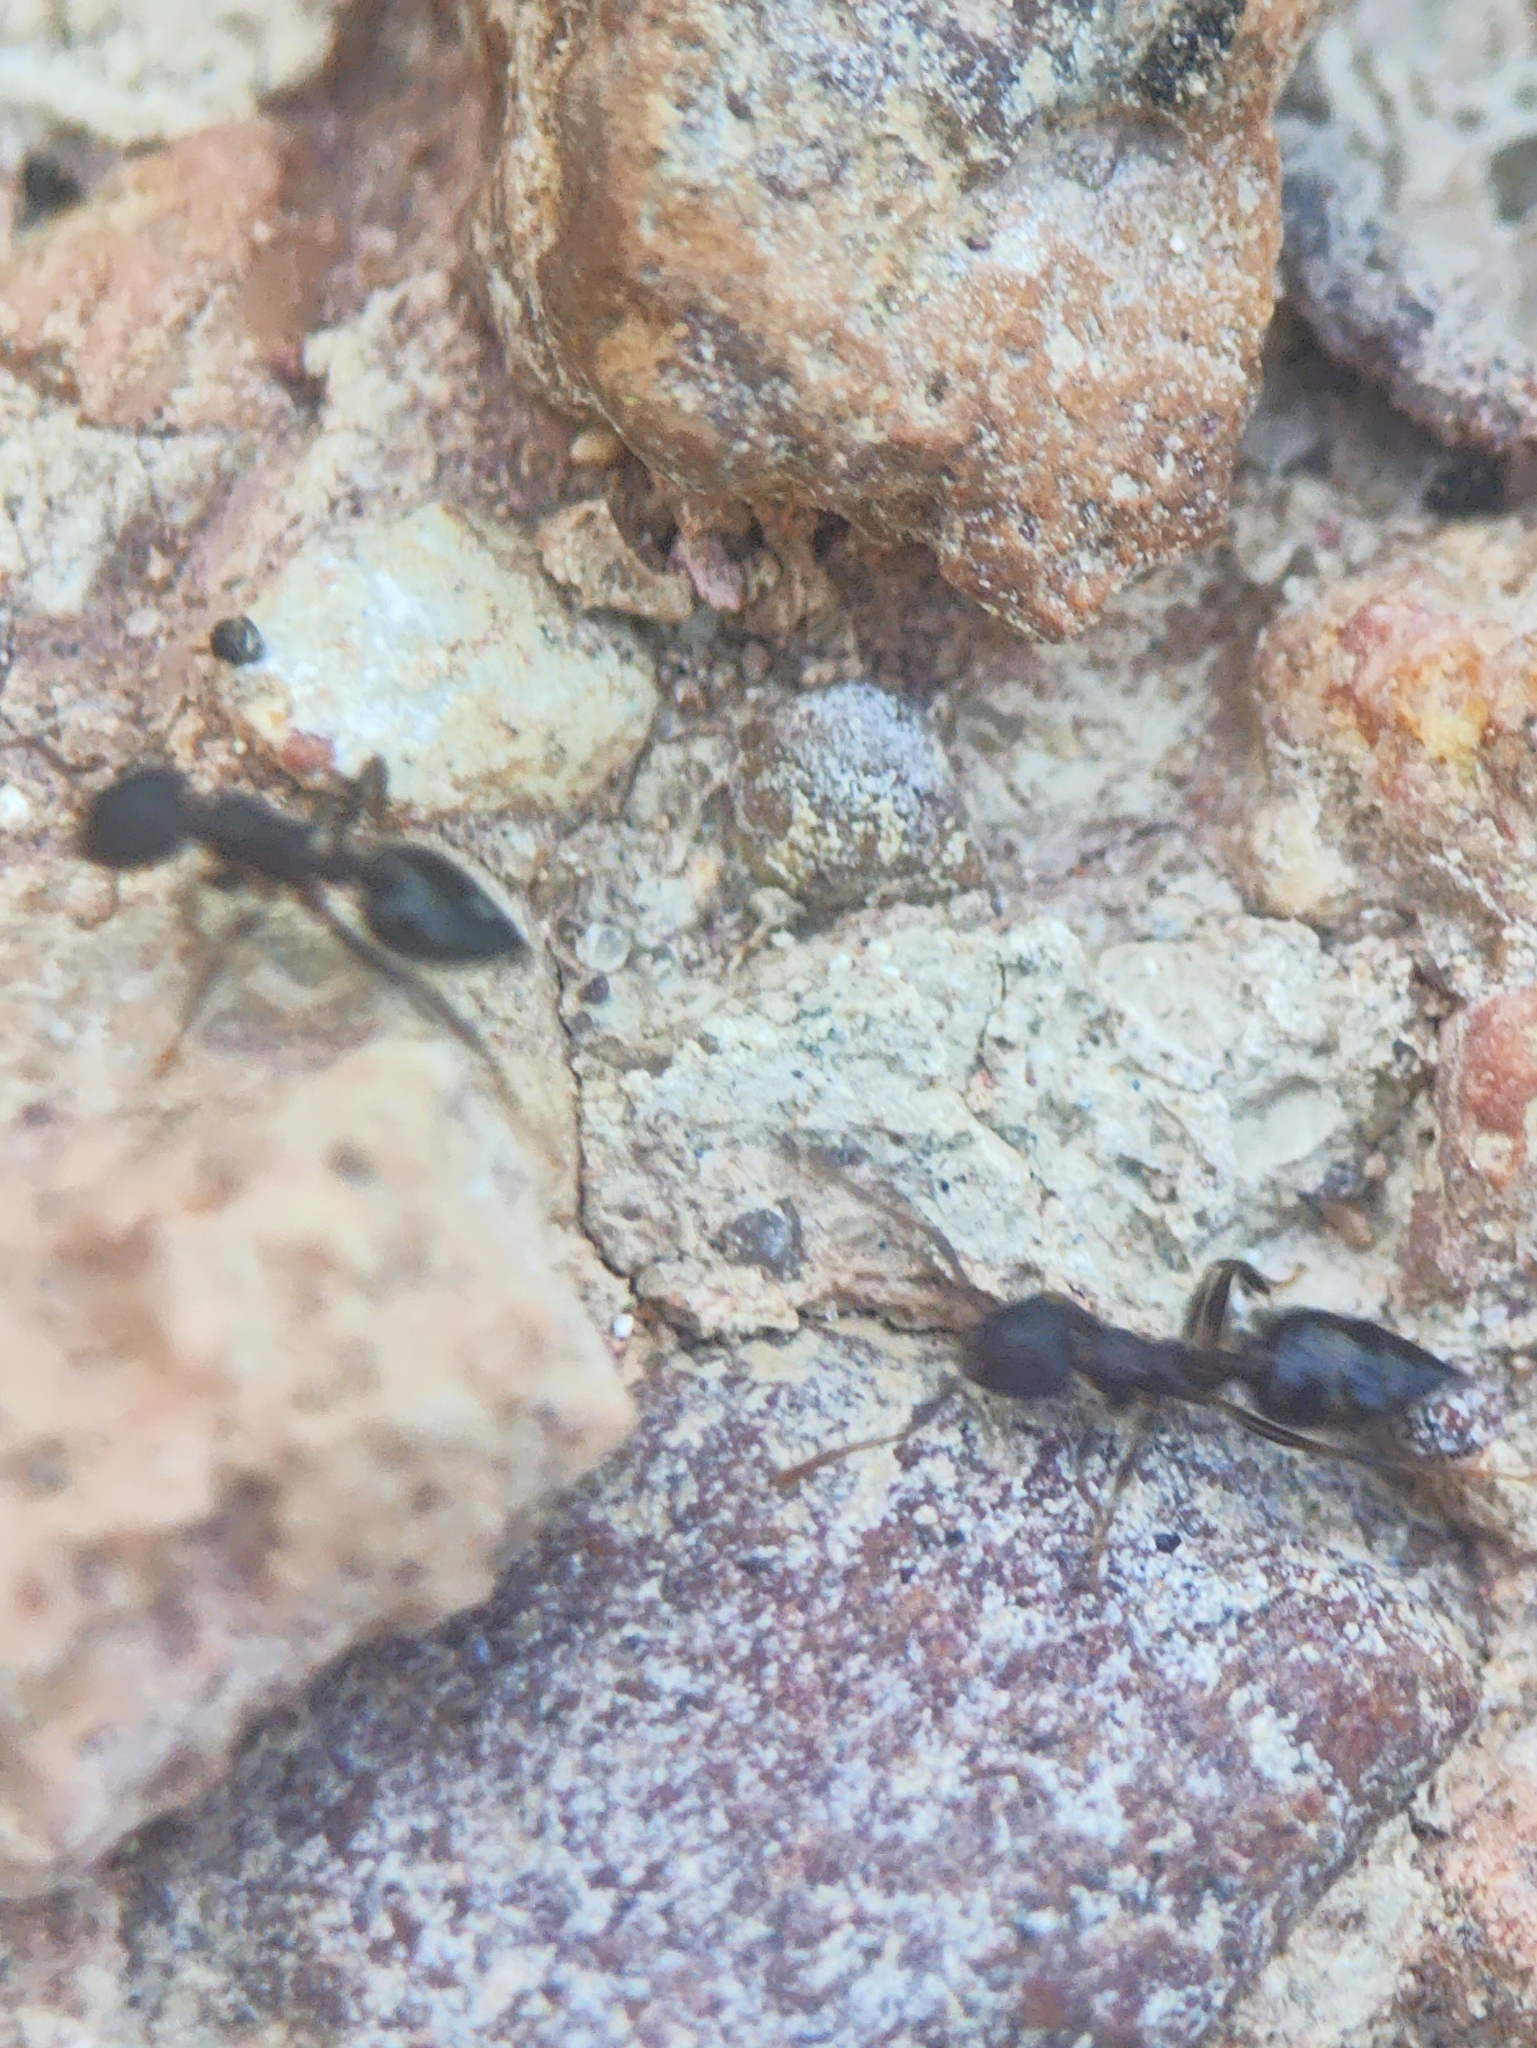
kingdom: Animalia
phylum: Arthropoda
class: Insecta
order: Hymenoptera
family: Formicidae
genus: Crematogaster
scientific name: Crematogaster rothneyi
